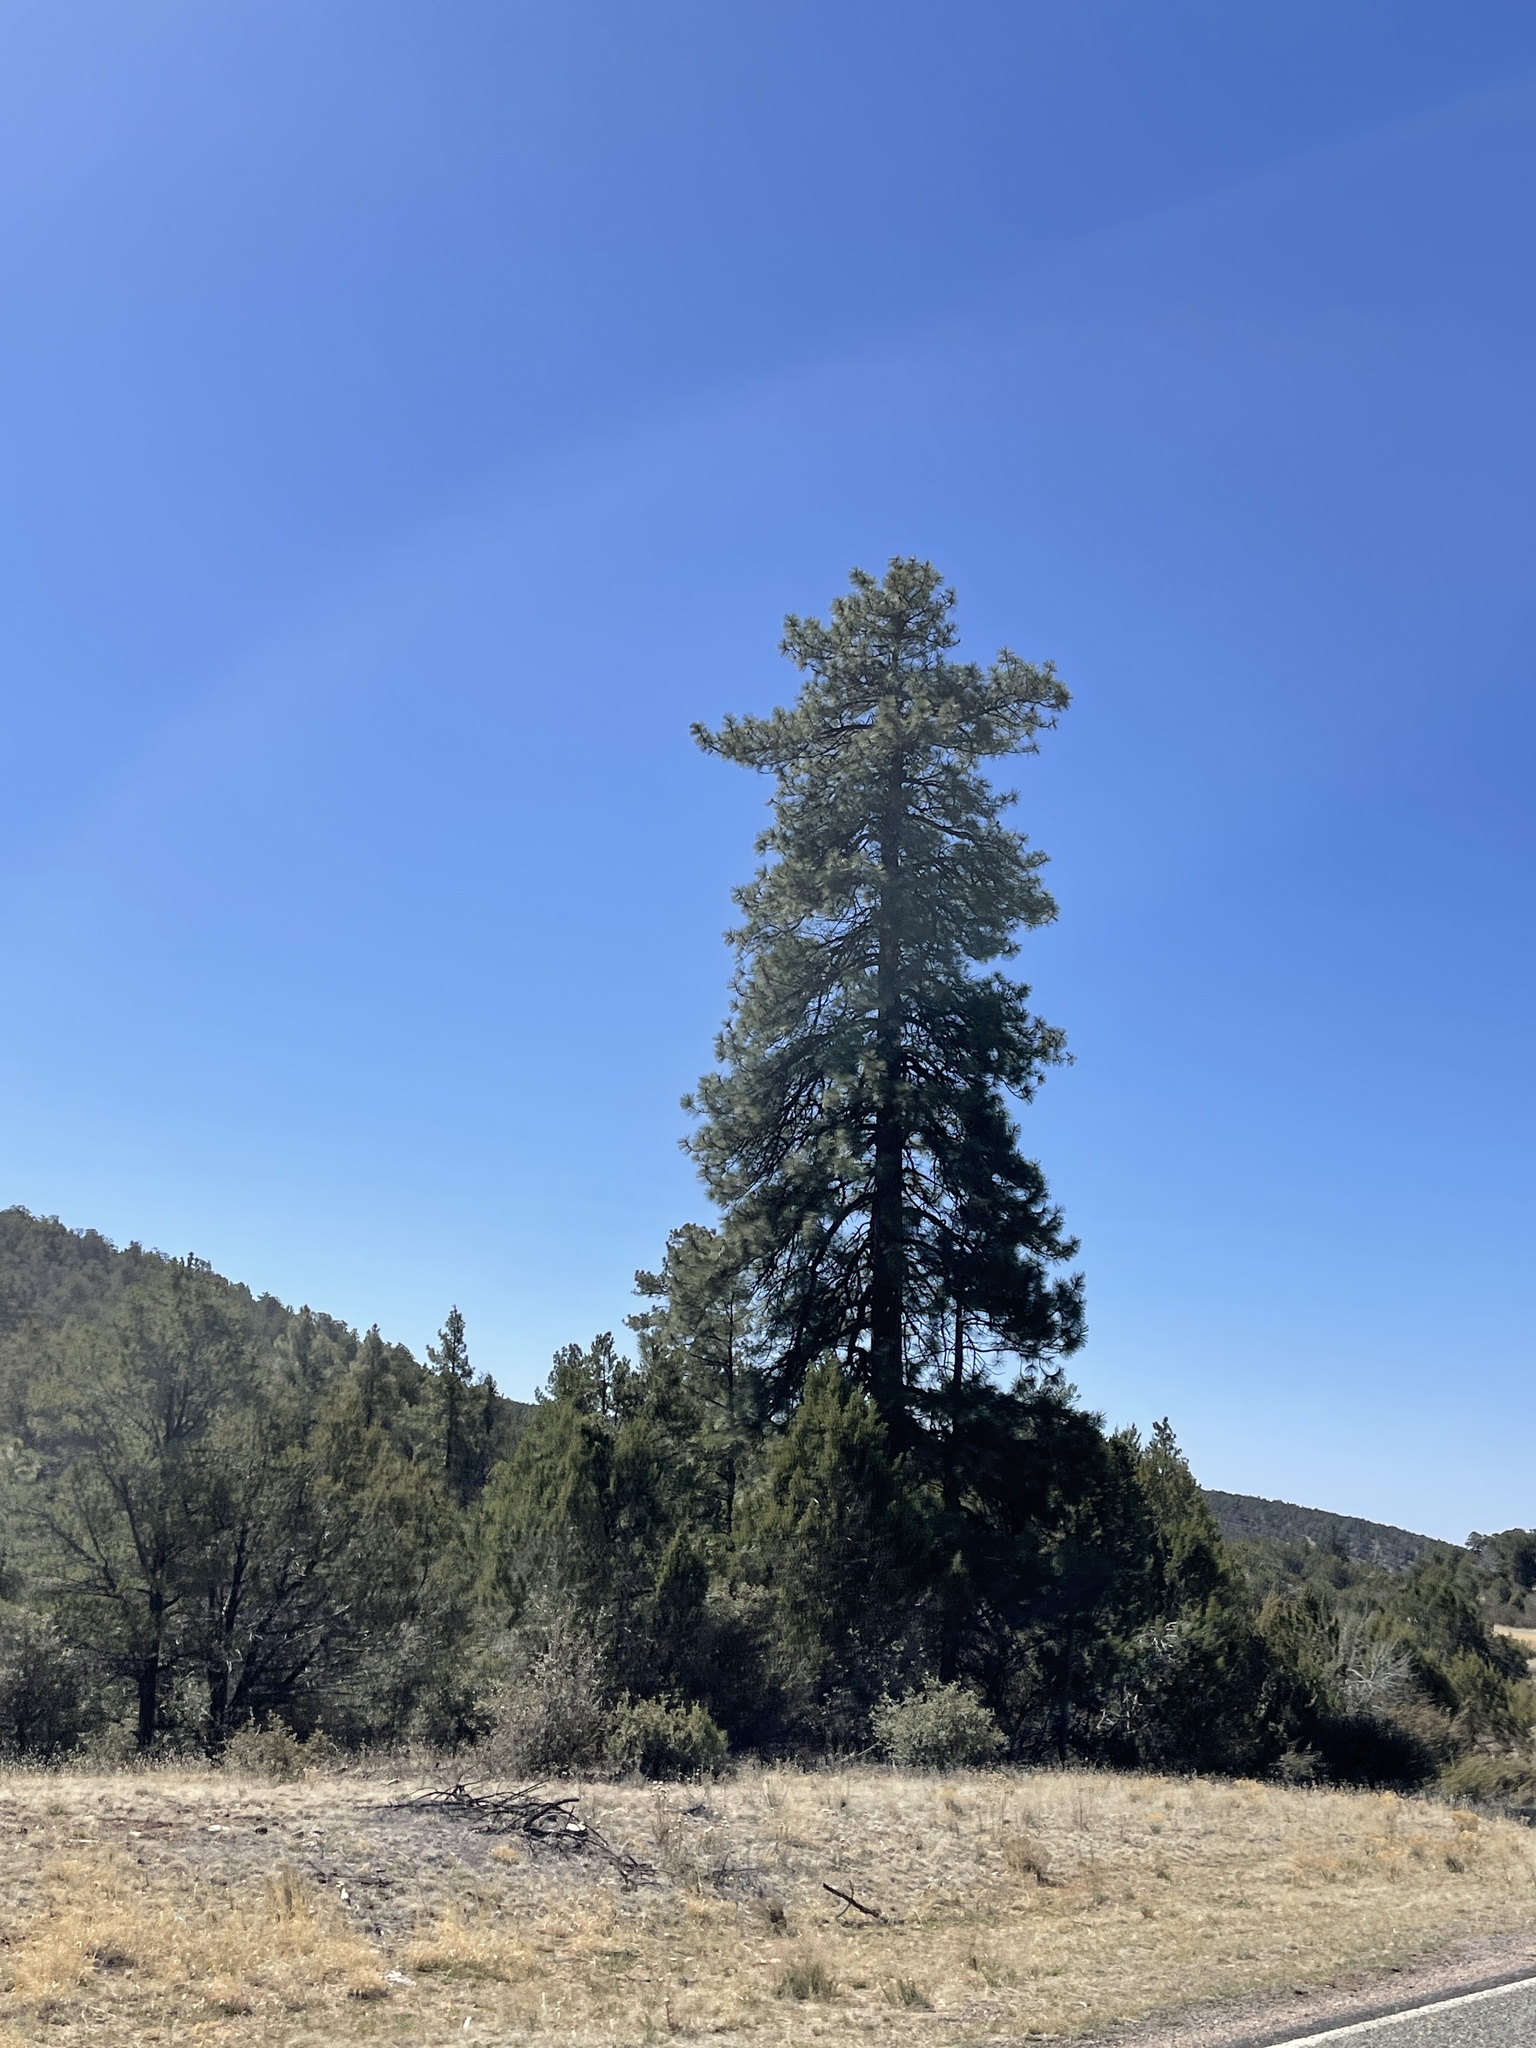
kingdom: Plantae
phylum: Tracheophyta
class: Pinopsida
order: Pinales
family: Pinaceae
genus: Pinus
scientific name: Pinus ponderosa
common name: Western yellow-pine
